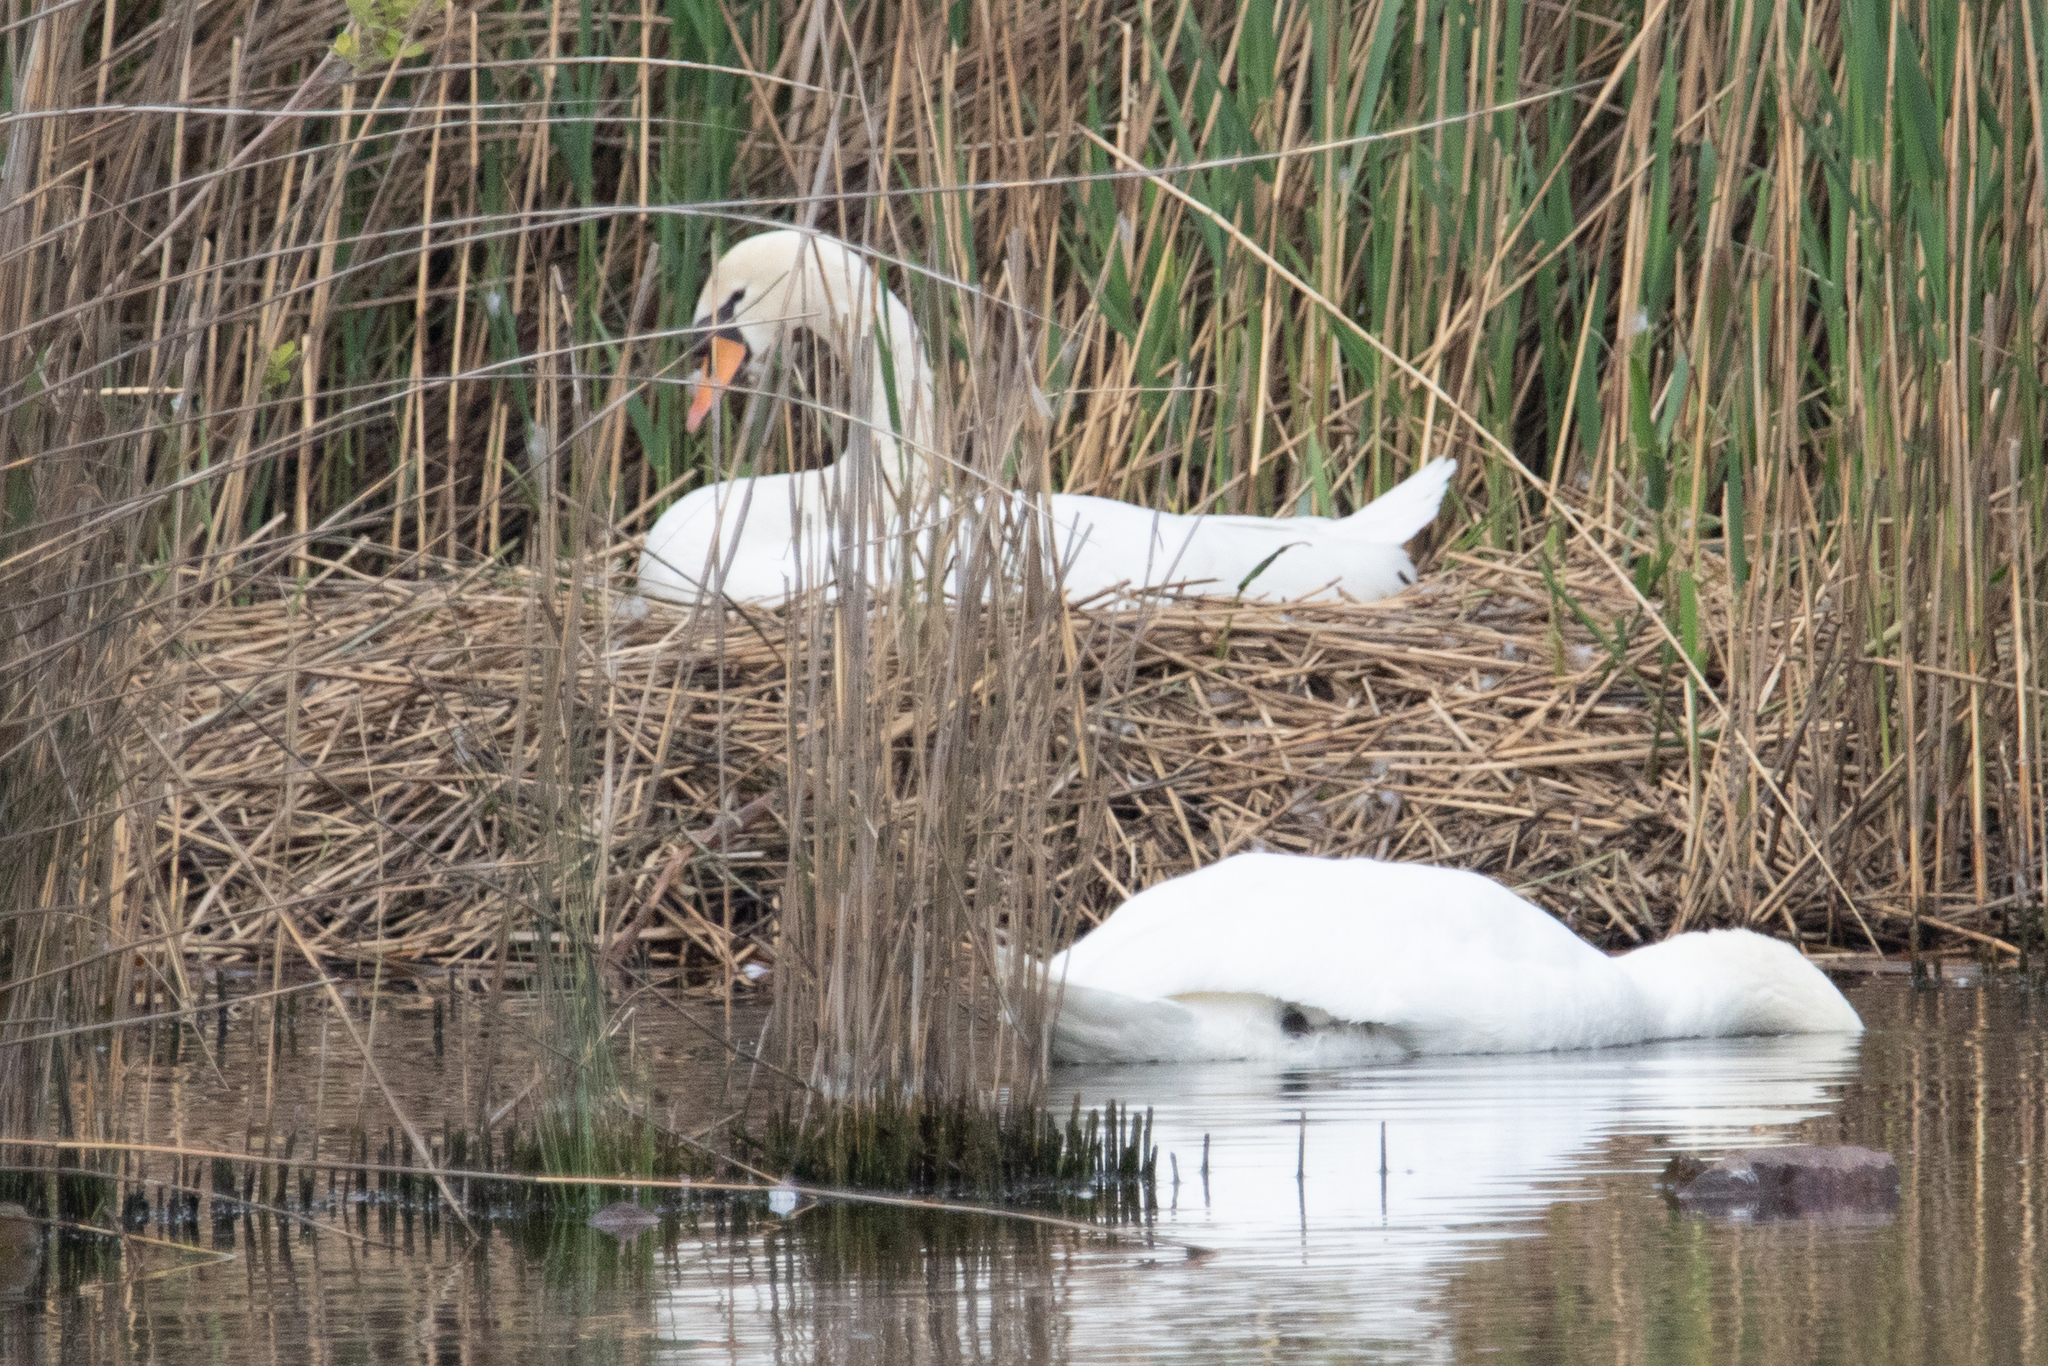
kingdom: Animalia
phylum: Chordata
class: Aves
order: Anseriformes
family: Anatidae
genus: Cygnus
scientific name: Cygnus olor
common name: Mute swan
